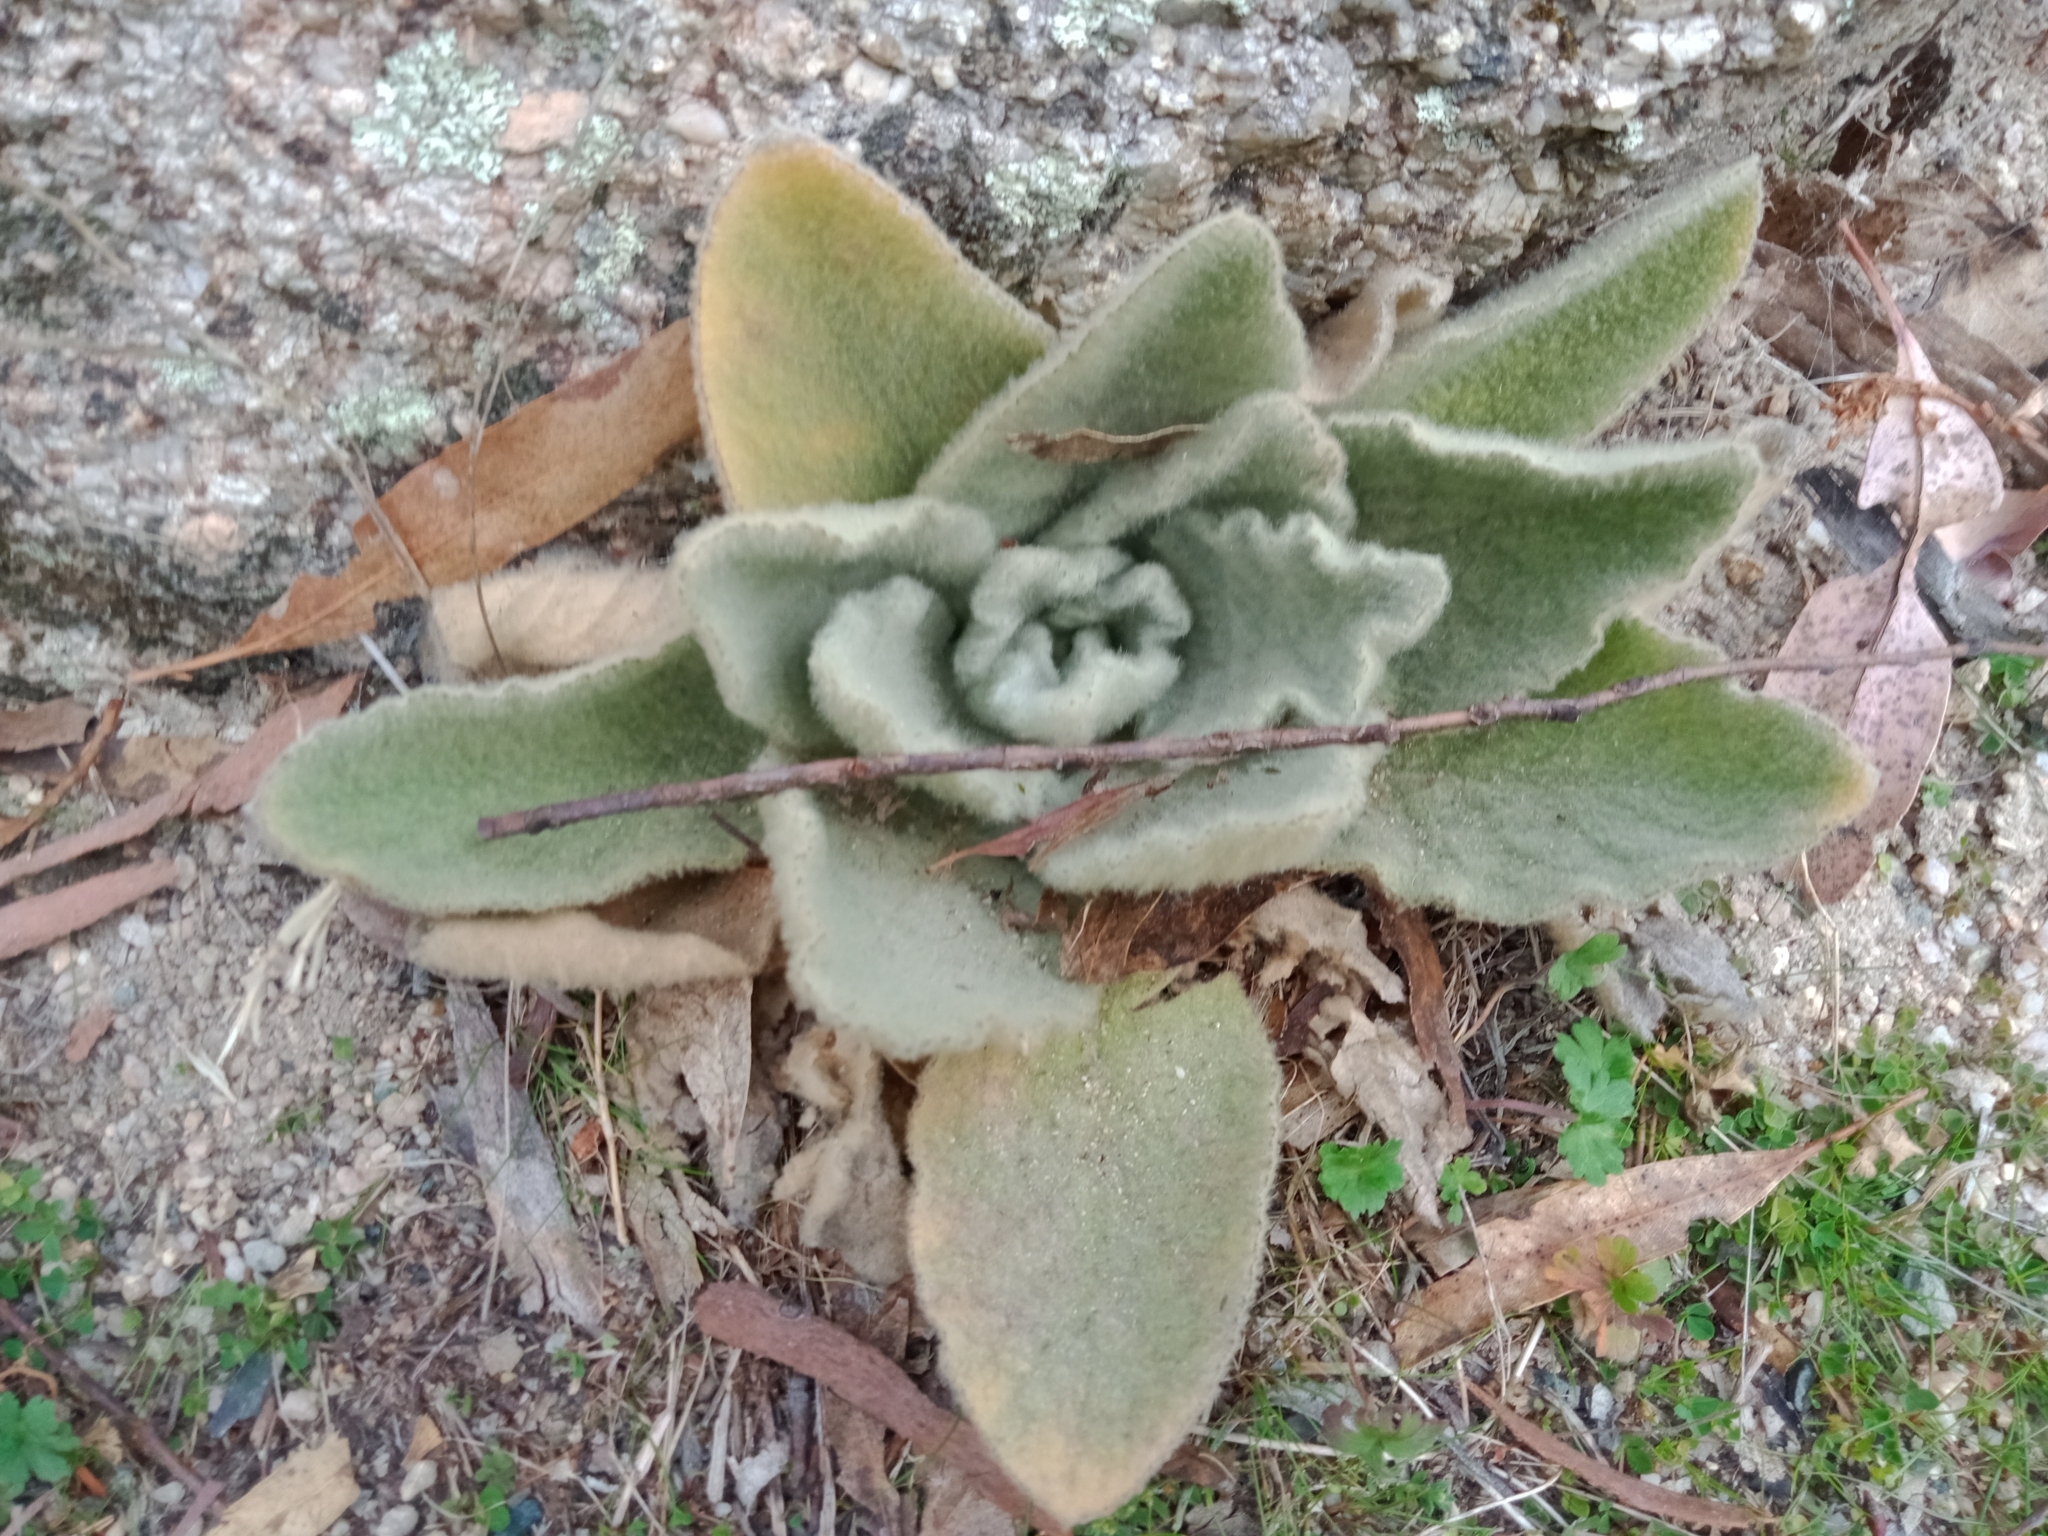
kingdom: Plantae
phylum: Tracheophyta
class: Magnoliopsida
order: Lamiales
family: Scrophulariaceae
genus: Verbascum
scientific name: Verbascum thapsus
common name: Common mullein
